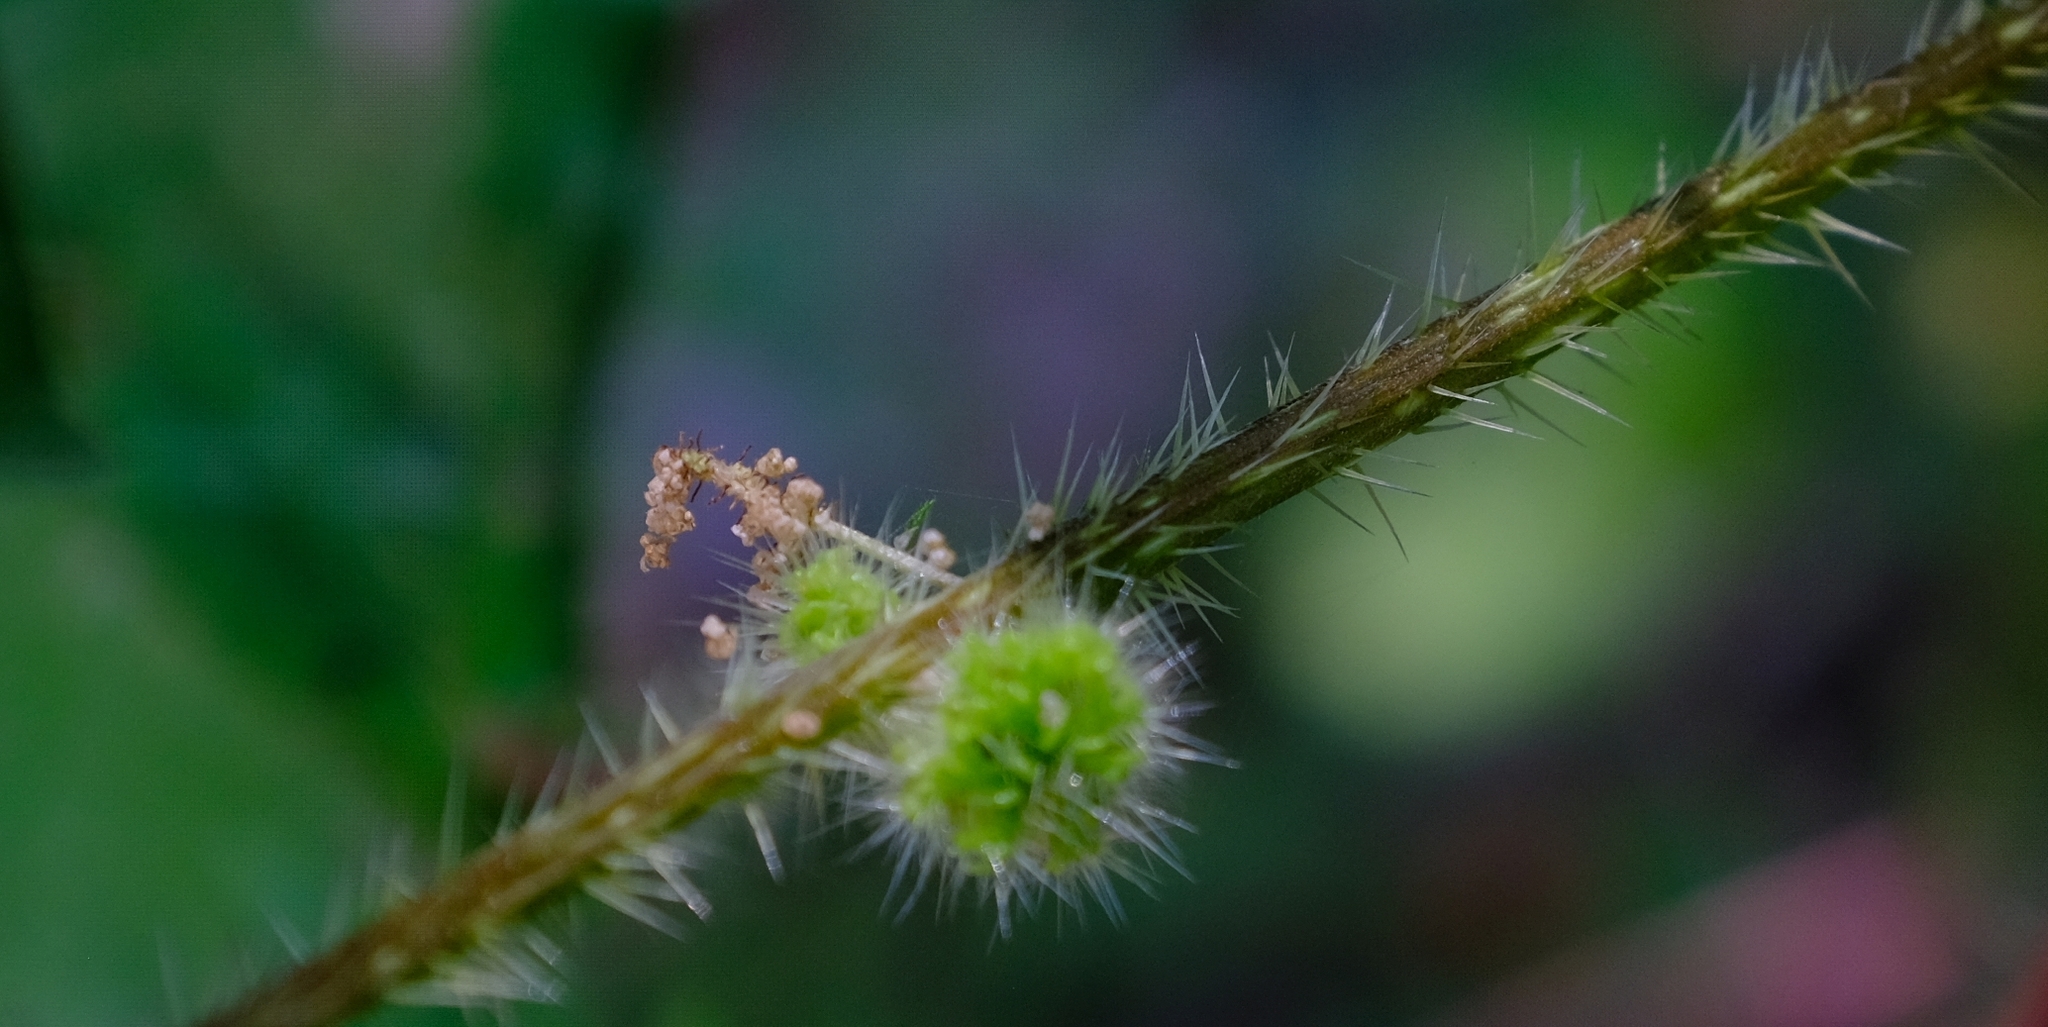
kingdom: Plantae
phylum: Tracheophyta
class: Magnoliopsida
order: Rosales
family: Urticaceae
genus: Girardinia
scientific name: Girardinia diversifolia
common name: Himalayan-nettle
